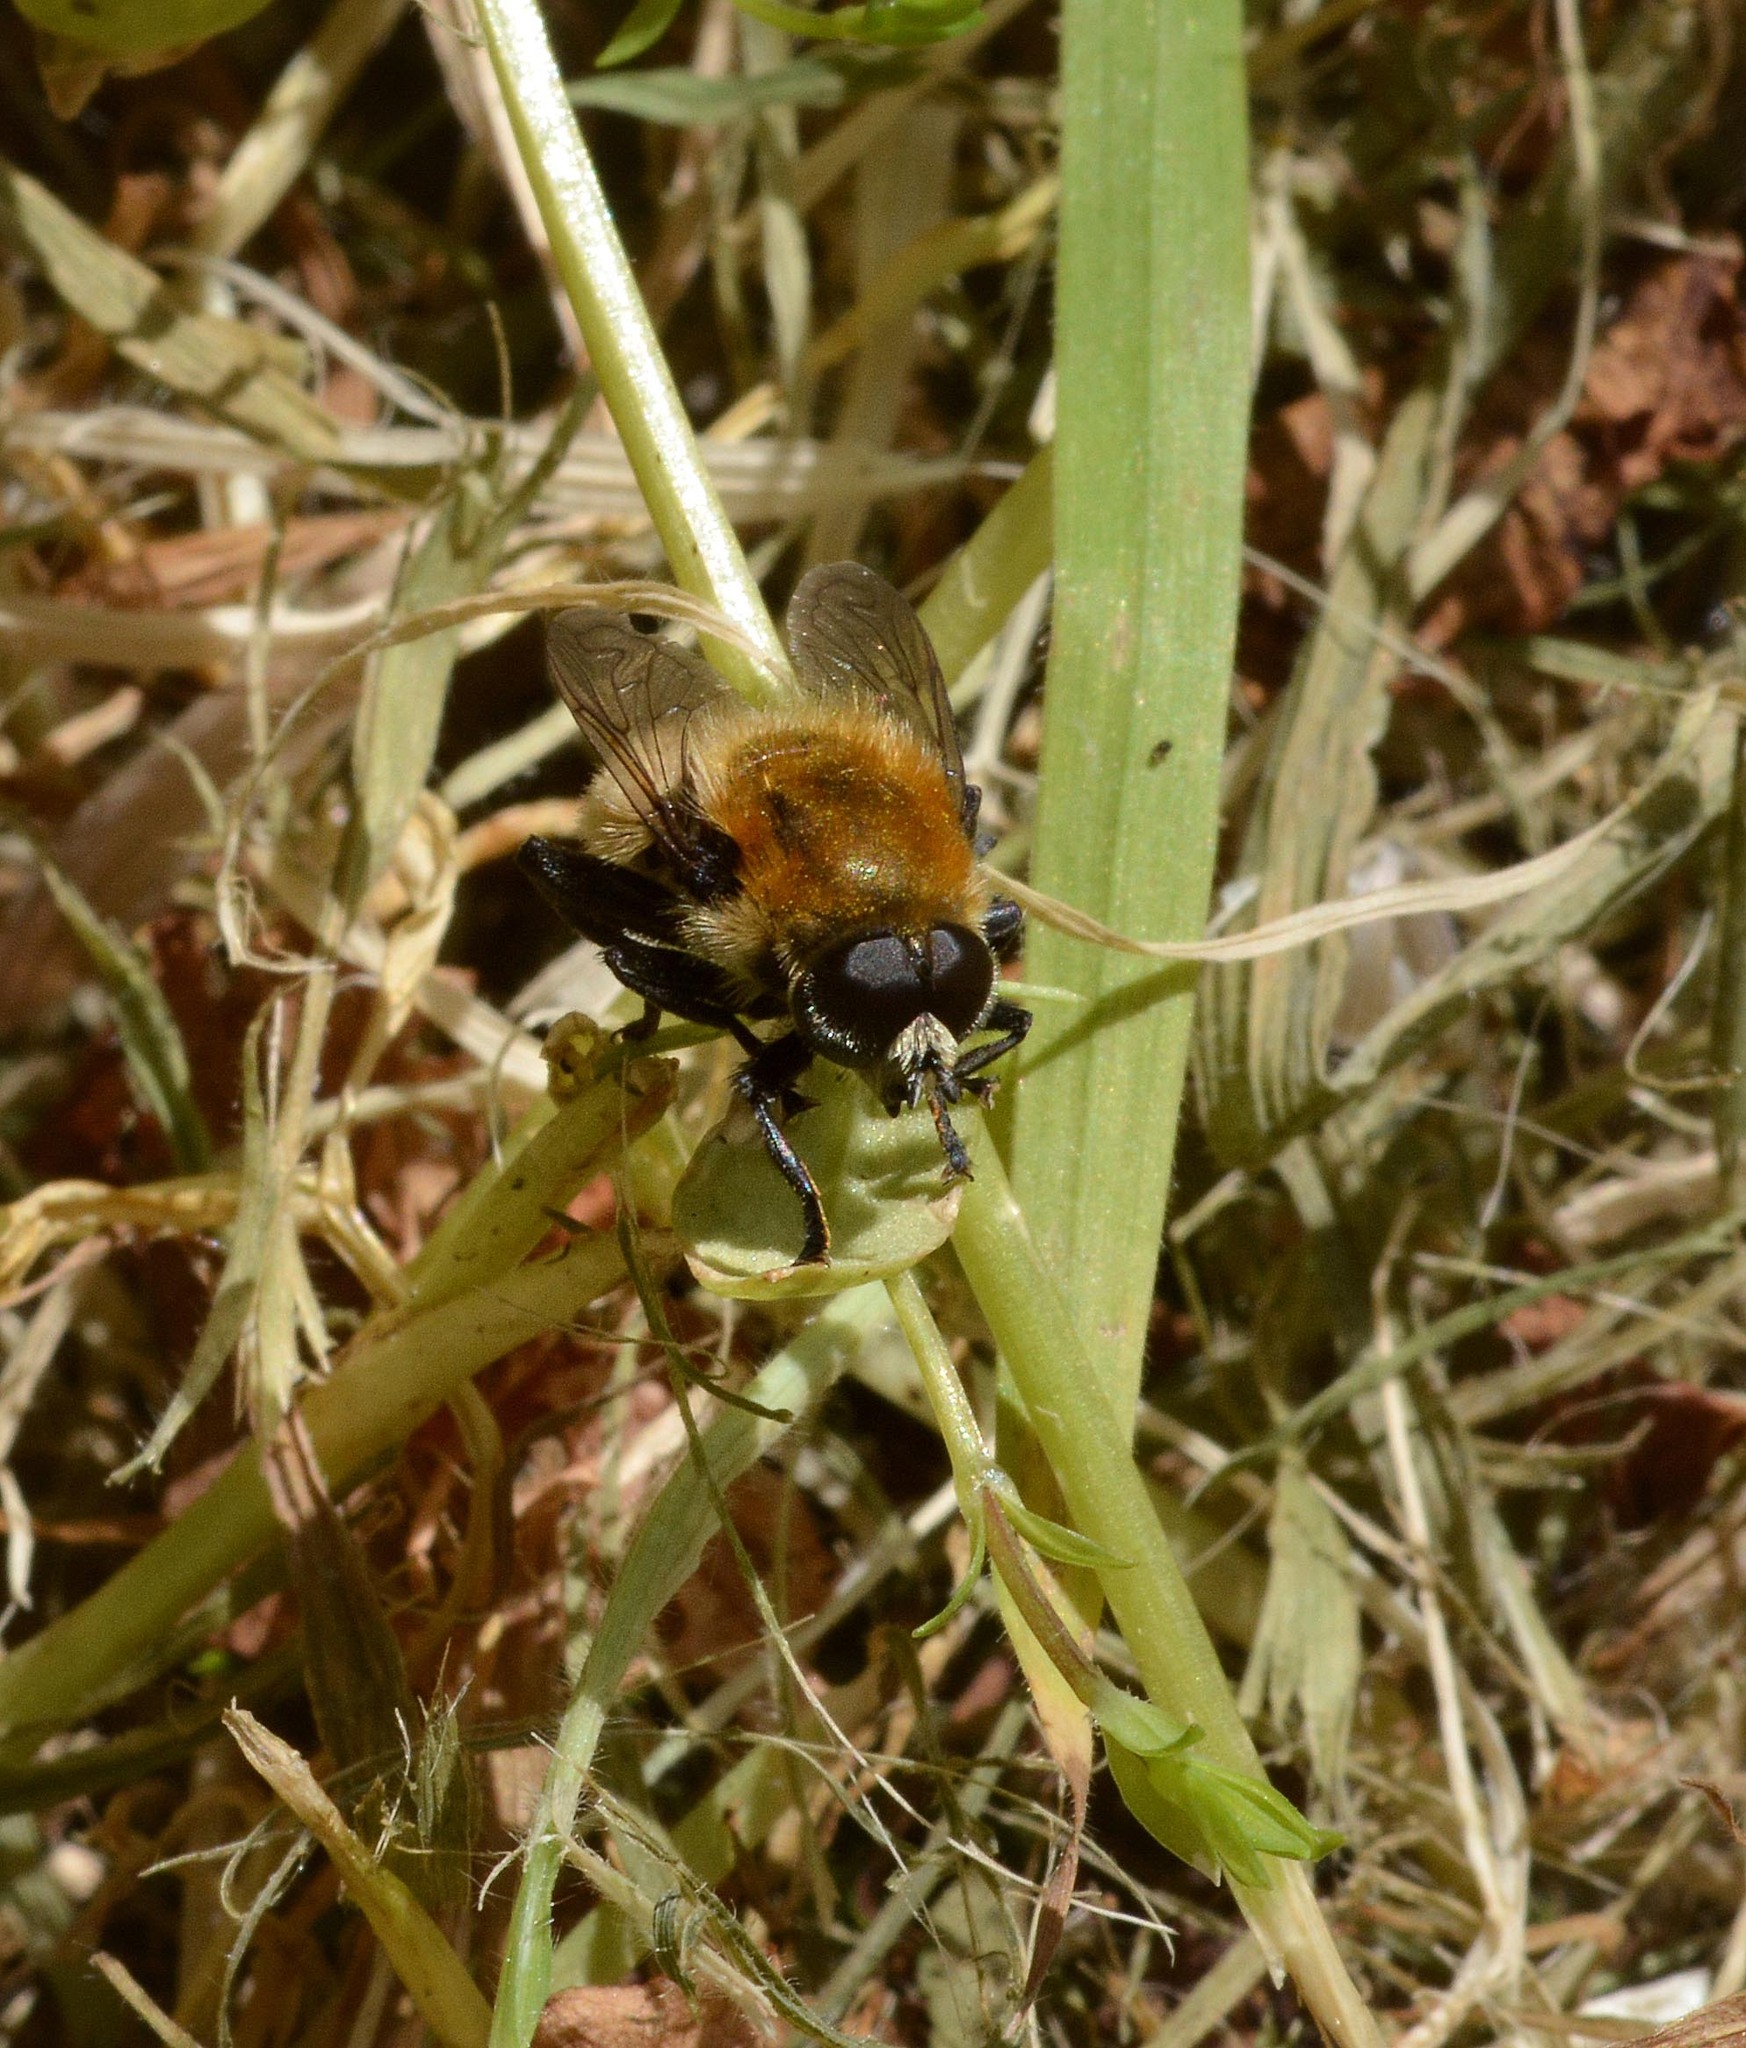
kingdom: Animalia
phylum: Arthropoda
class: Insecta
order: Diptera
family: Syrphidae
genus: Merodon
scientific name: Merodon equestris
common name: Greater bulb-fly
